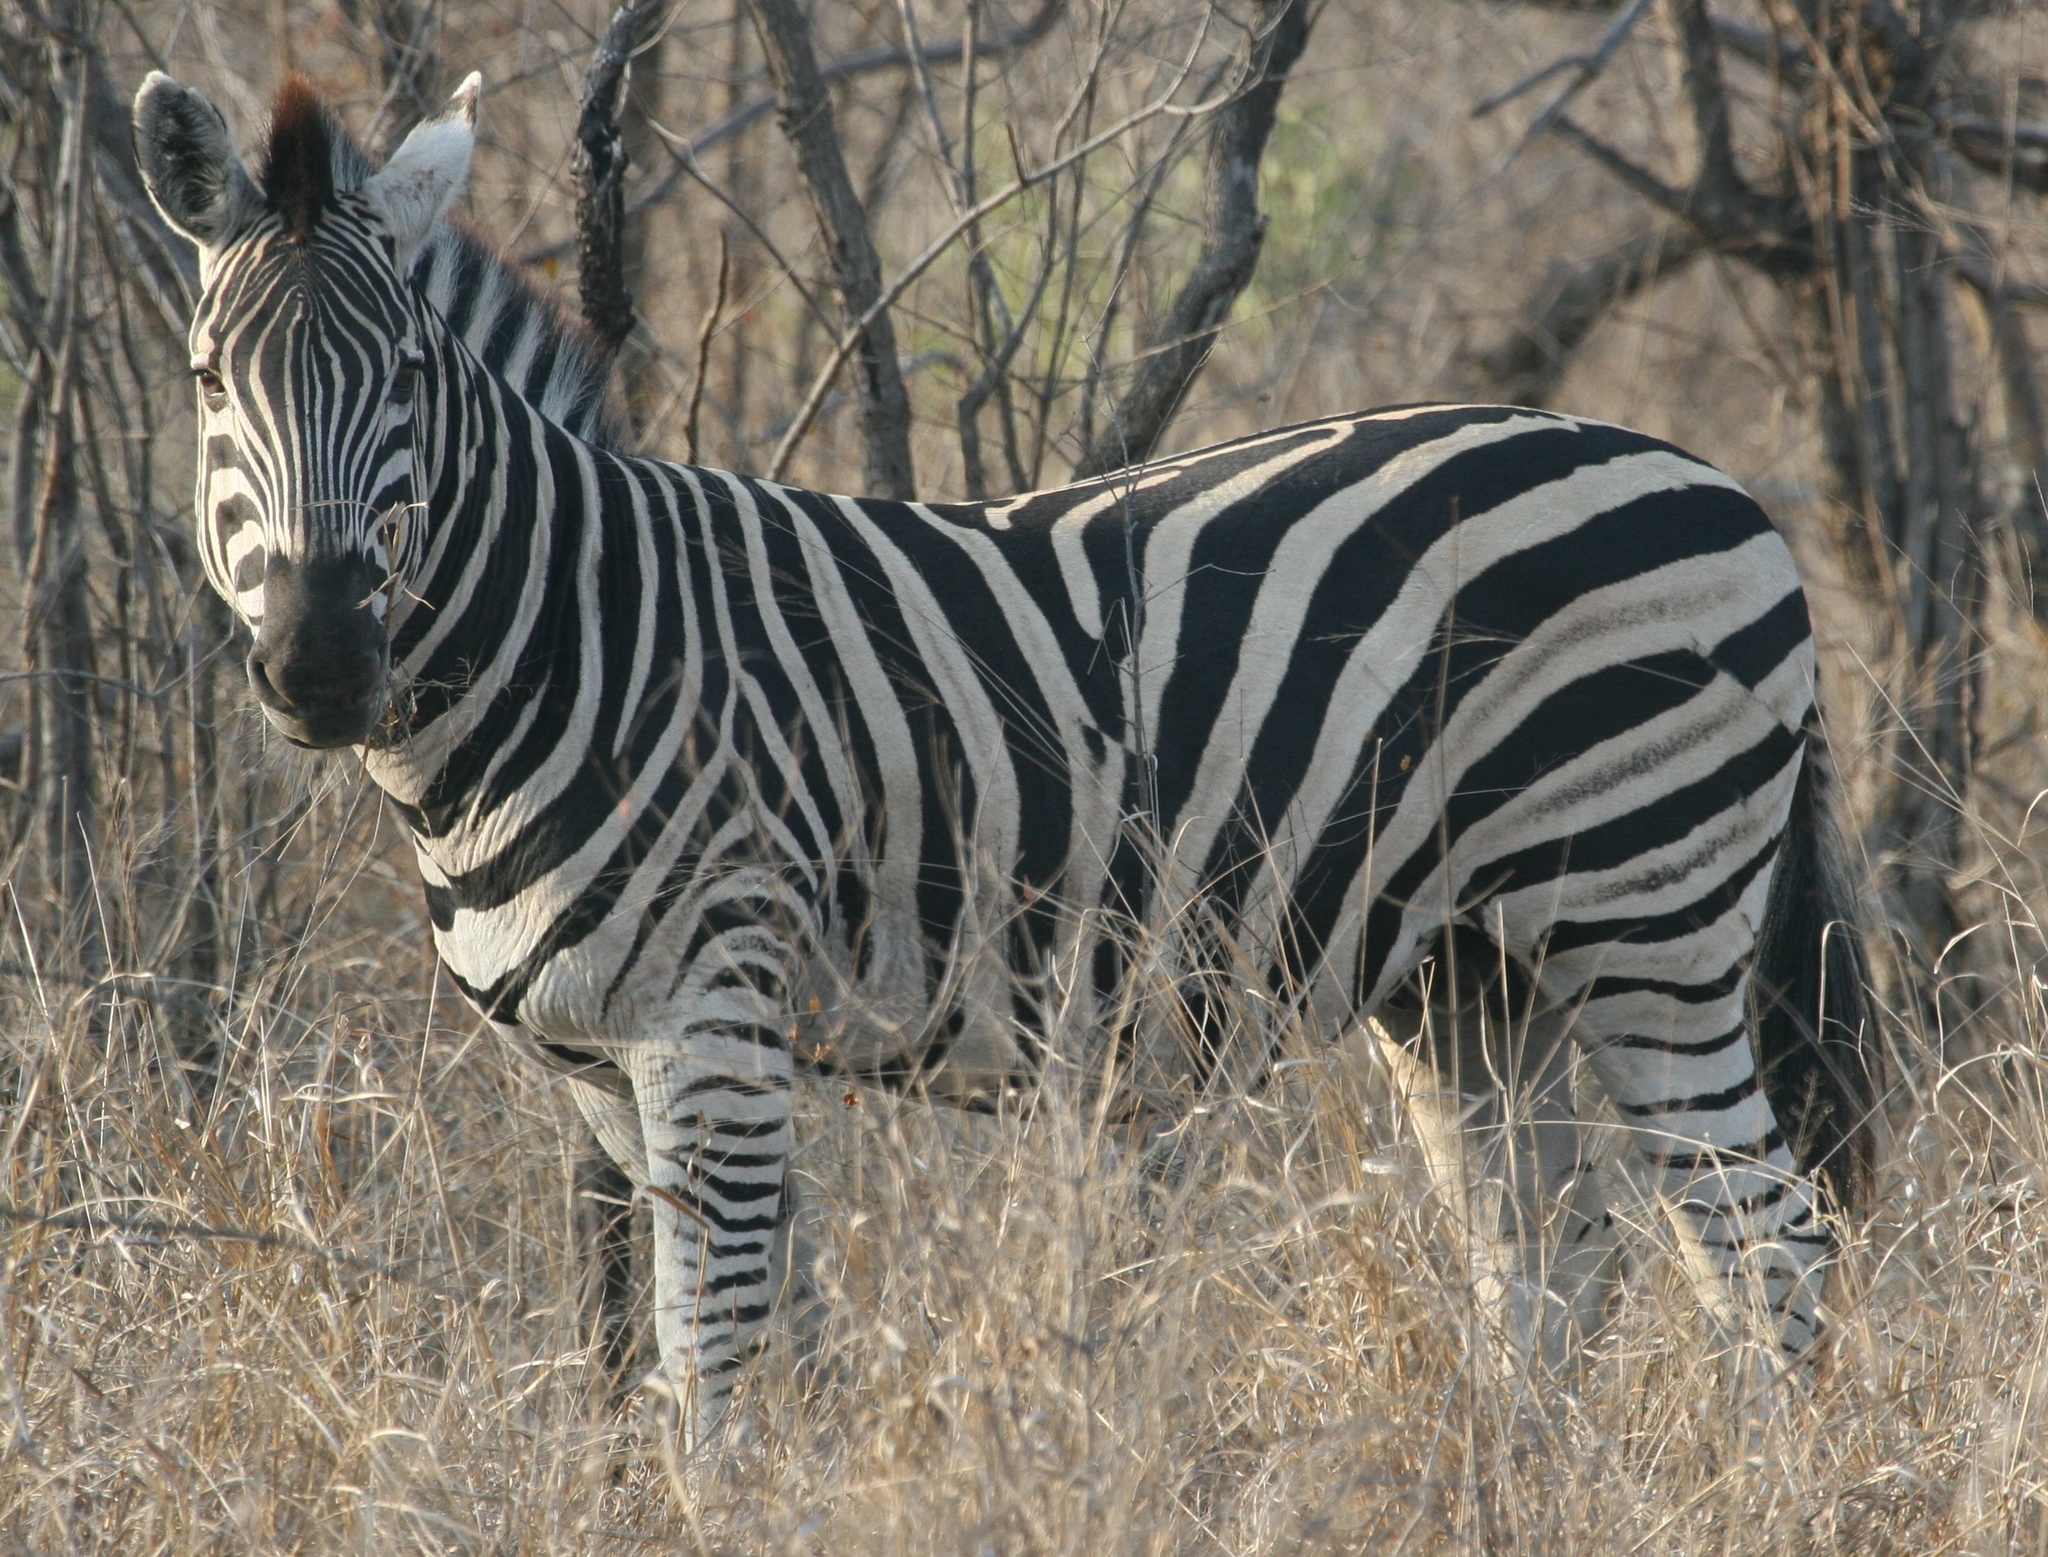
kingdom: Animalia
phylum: Chordata
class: Mammalia
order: Perissodactyla
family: Equidae
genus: Equus
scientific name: Equus quagga
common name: Plains zebra
